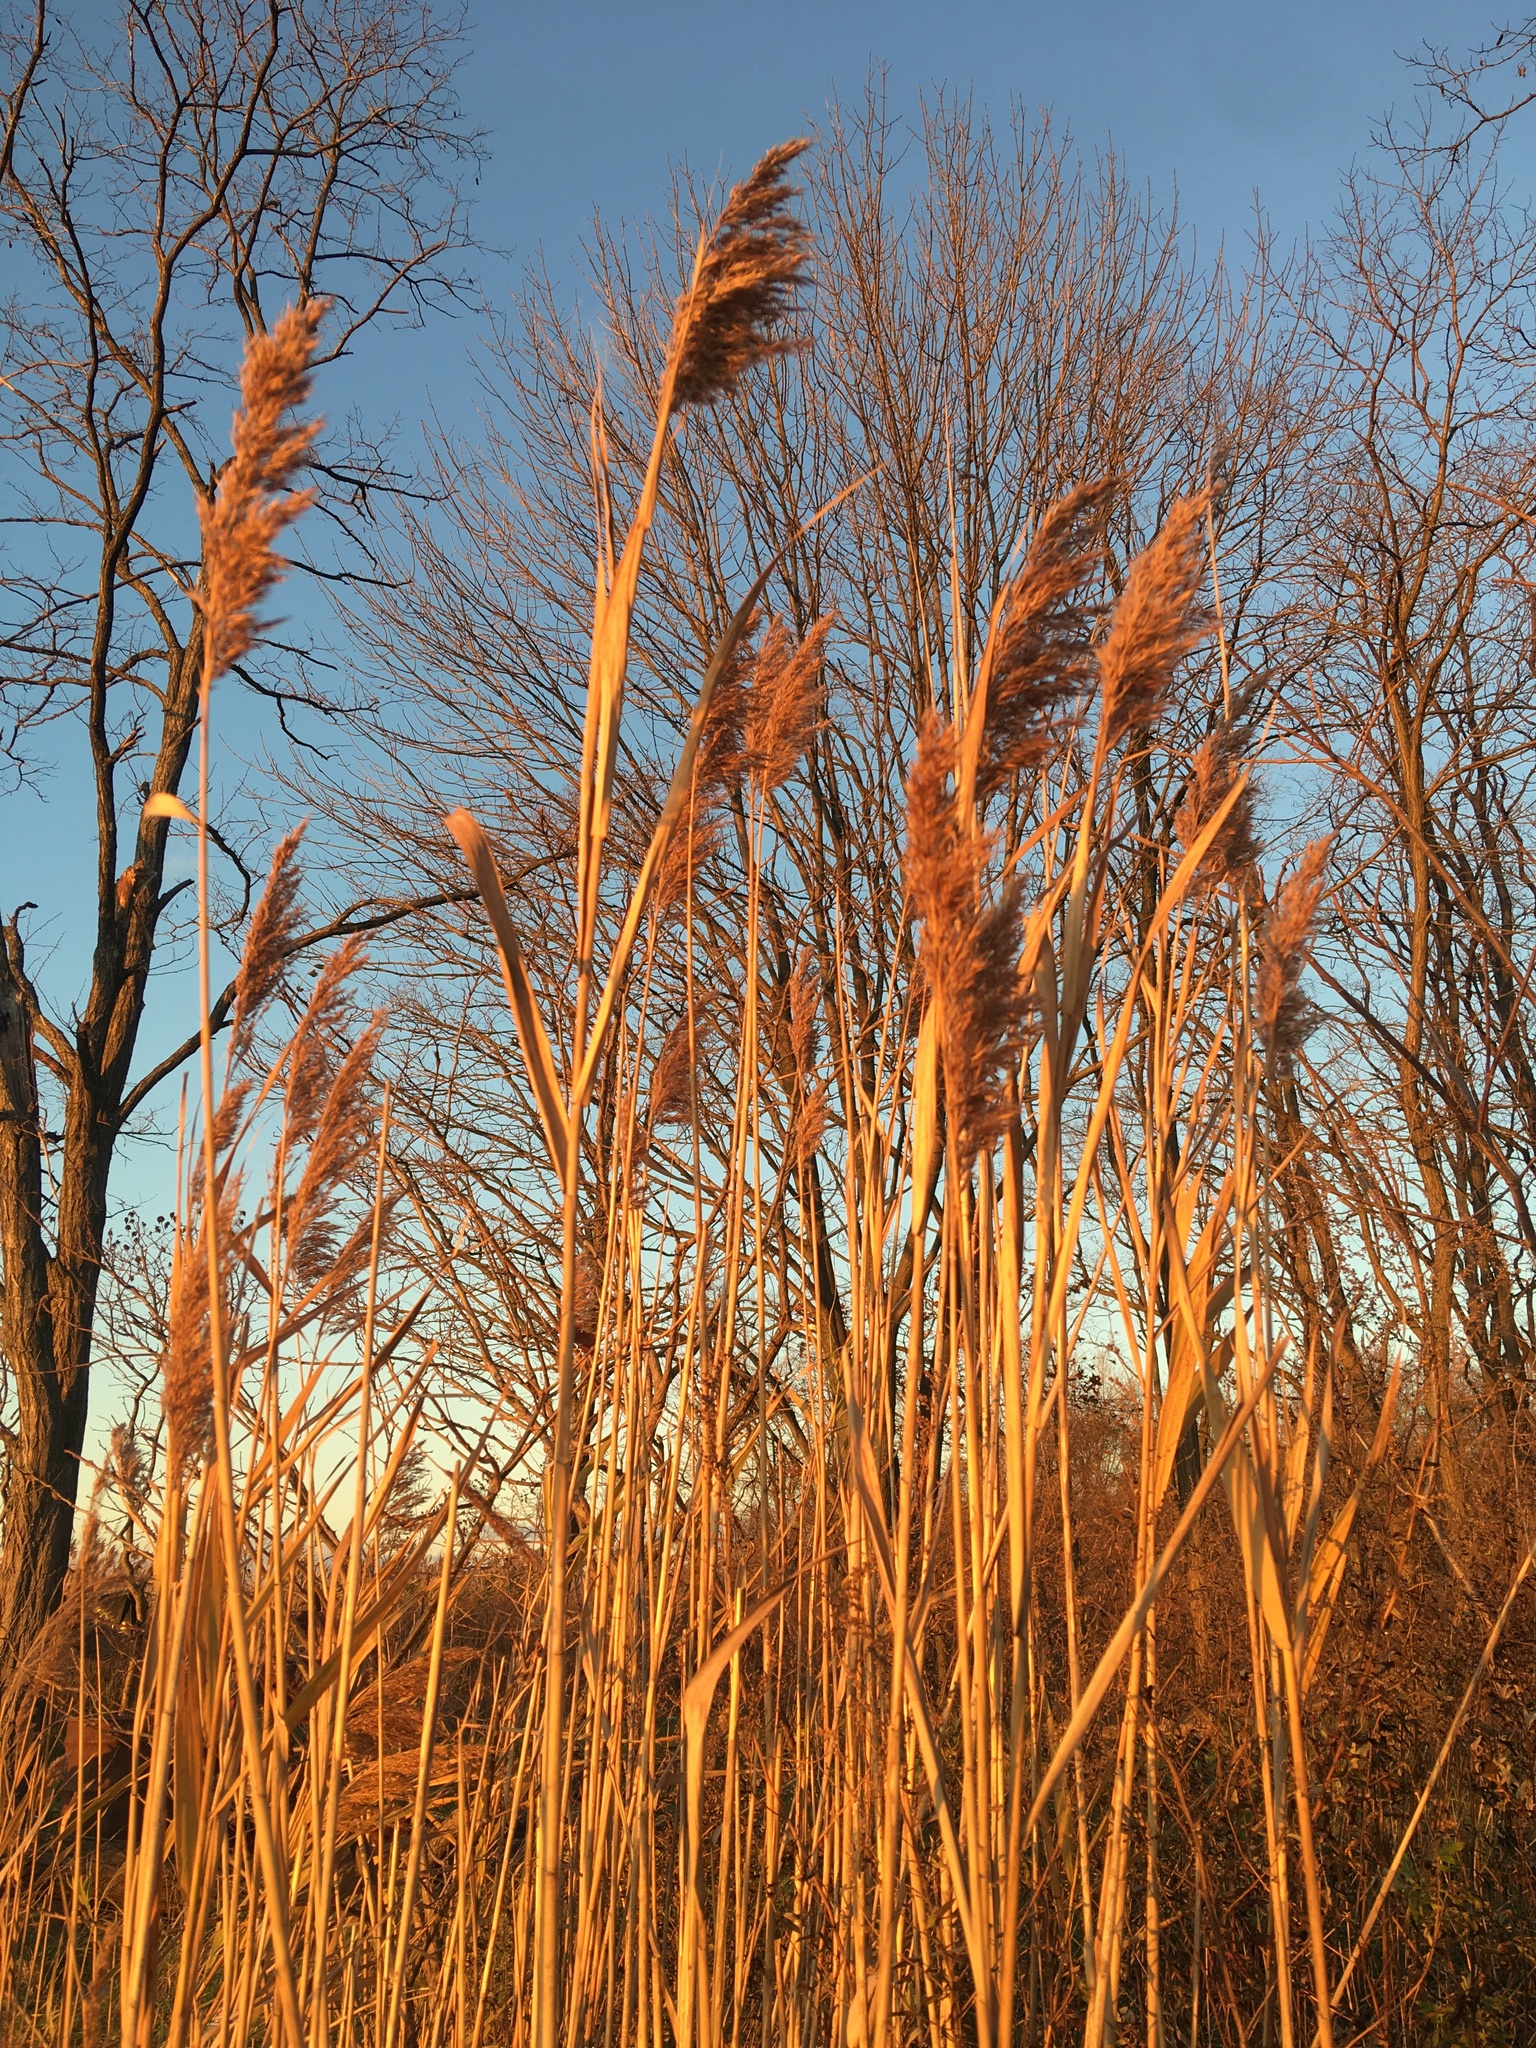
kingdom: Plantae
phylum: Tracheophyta
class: Liliopsida
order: Poales
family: Poaceae
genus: Phragmites
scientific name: Phragmites australis
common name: Common reed
